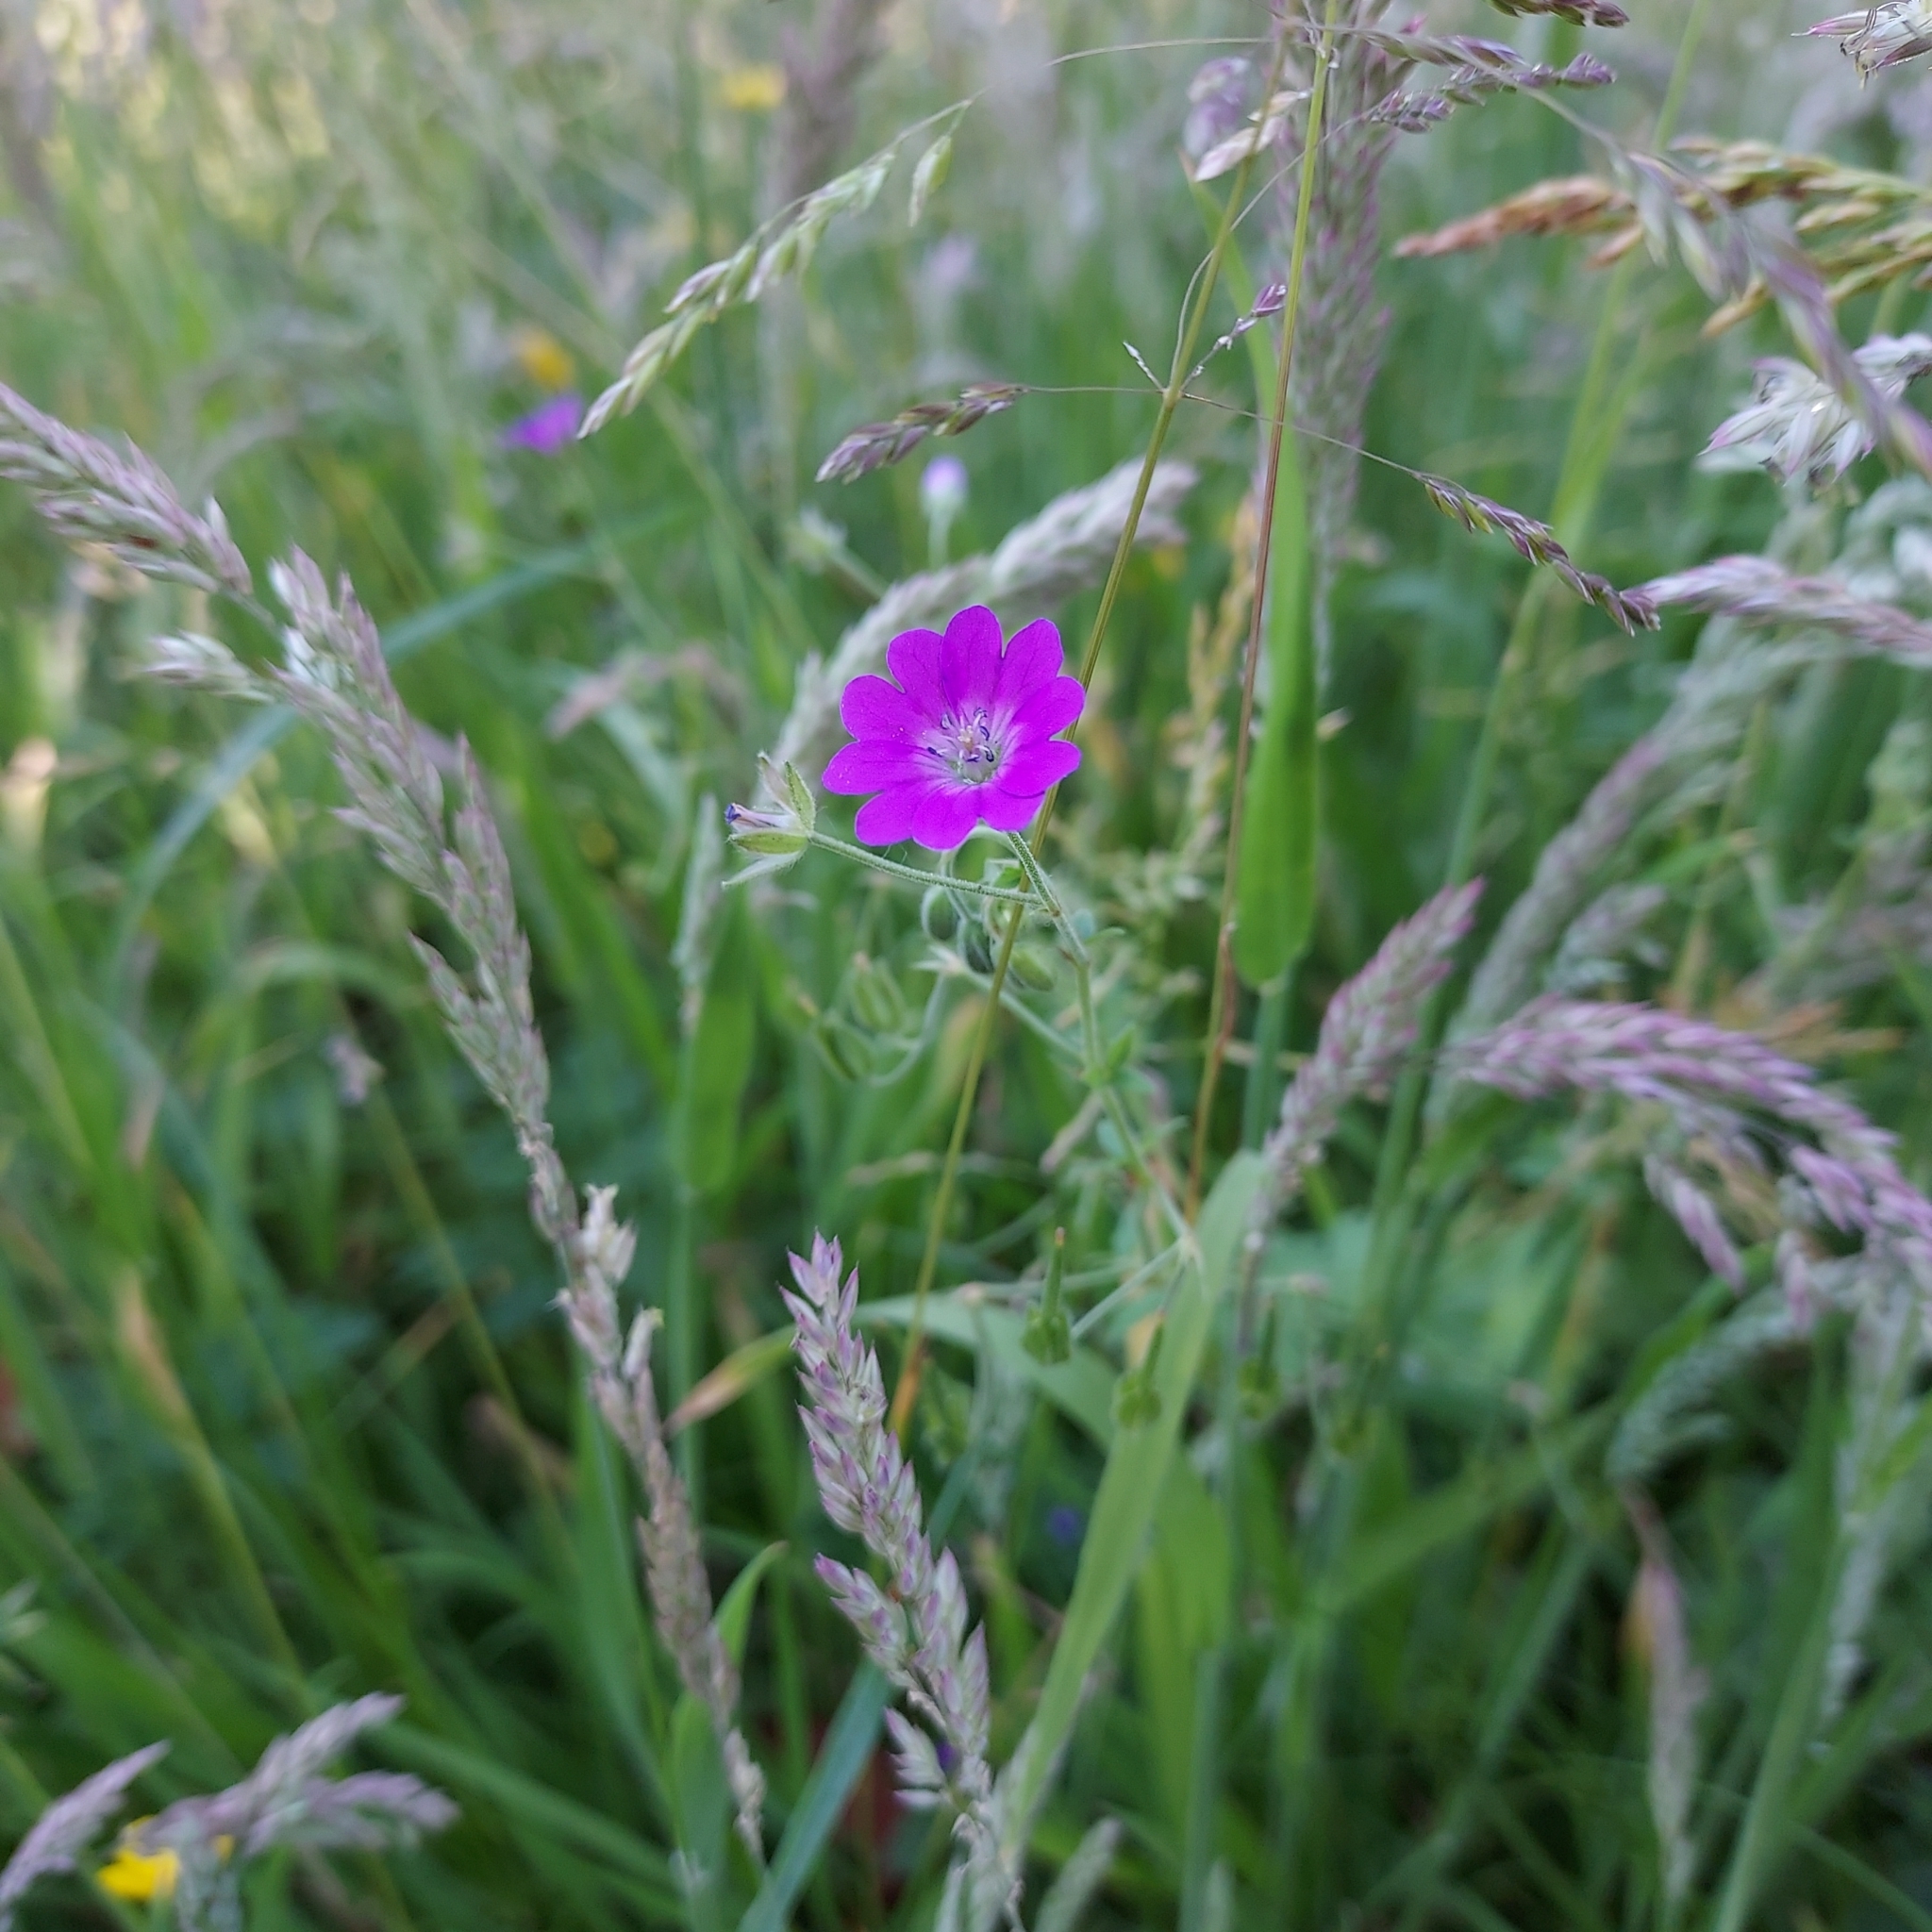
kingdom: Plantae
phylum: Tracheophyta
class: Magnoliopsida
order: Geraniales
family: Geraniaceae
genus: Geranium
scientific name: Geranium pyrenaicum
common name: Hedgerow crane's-bill
